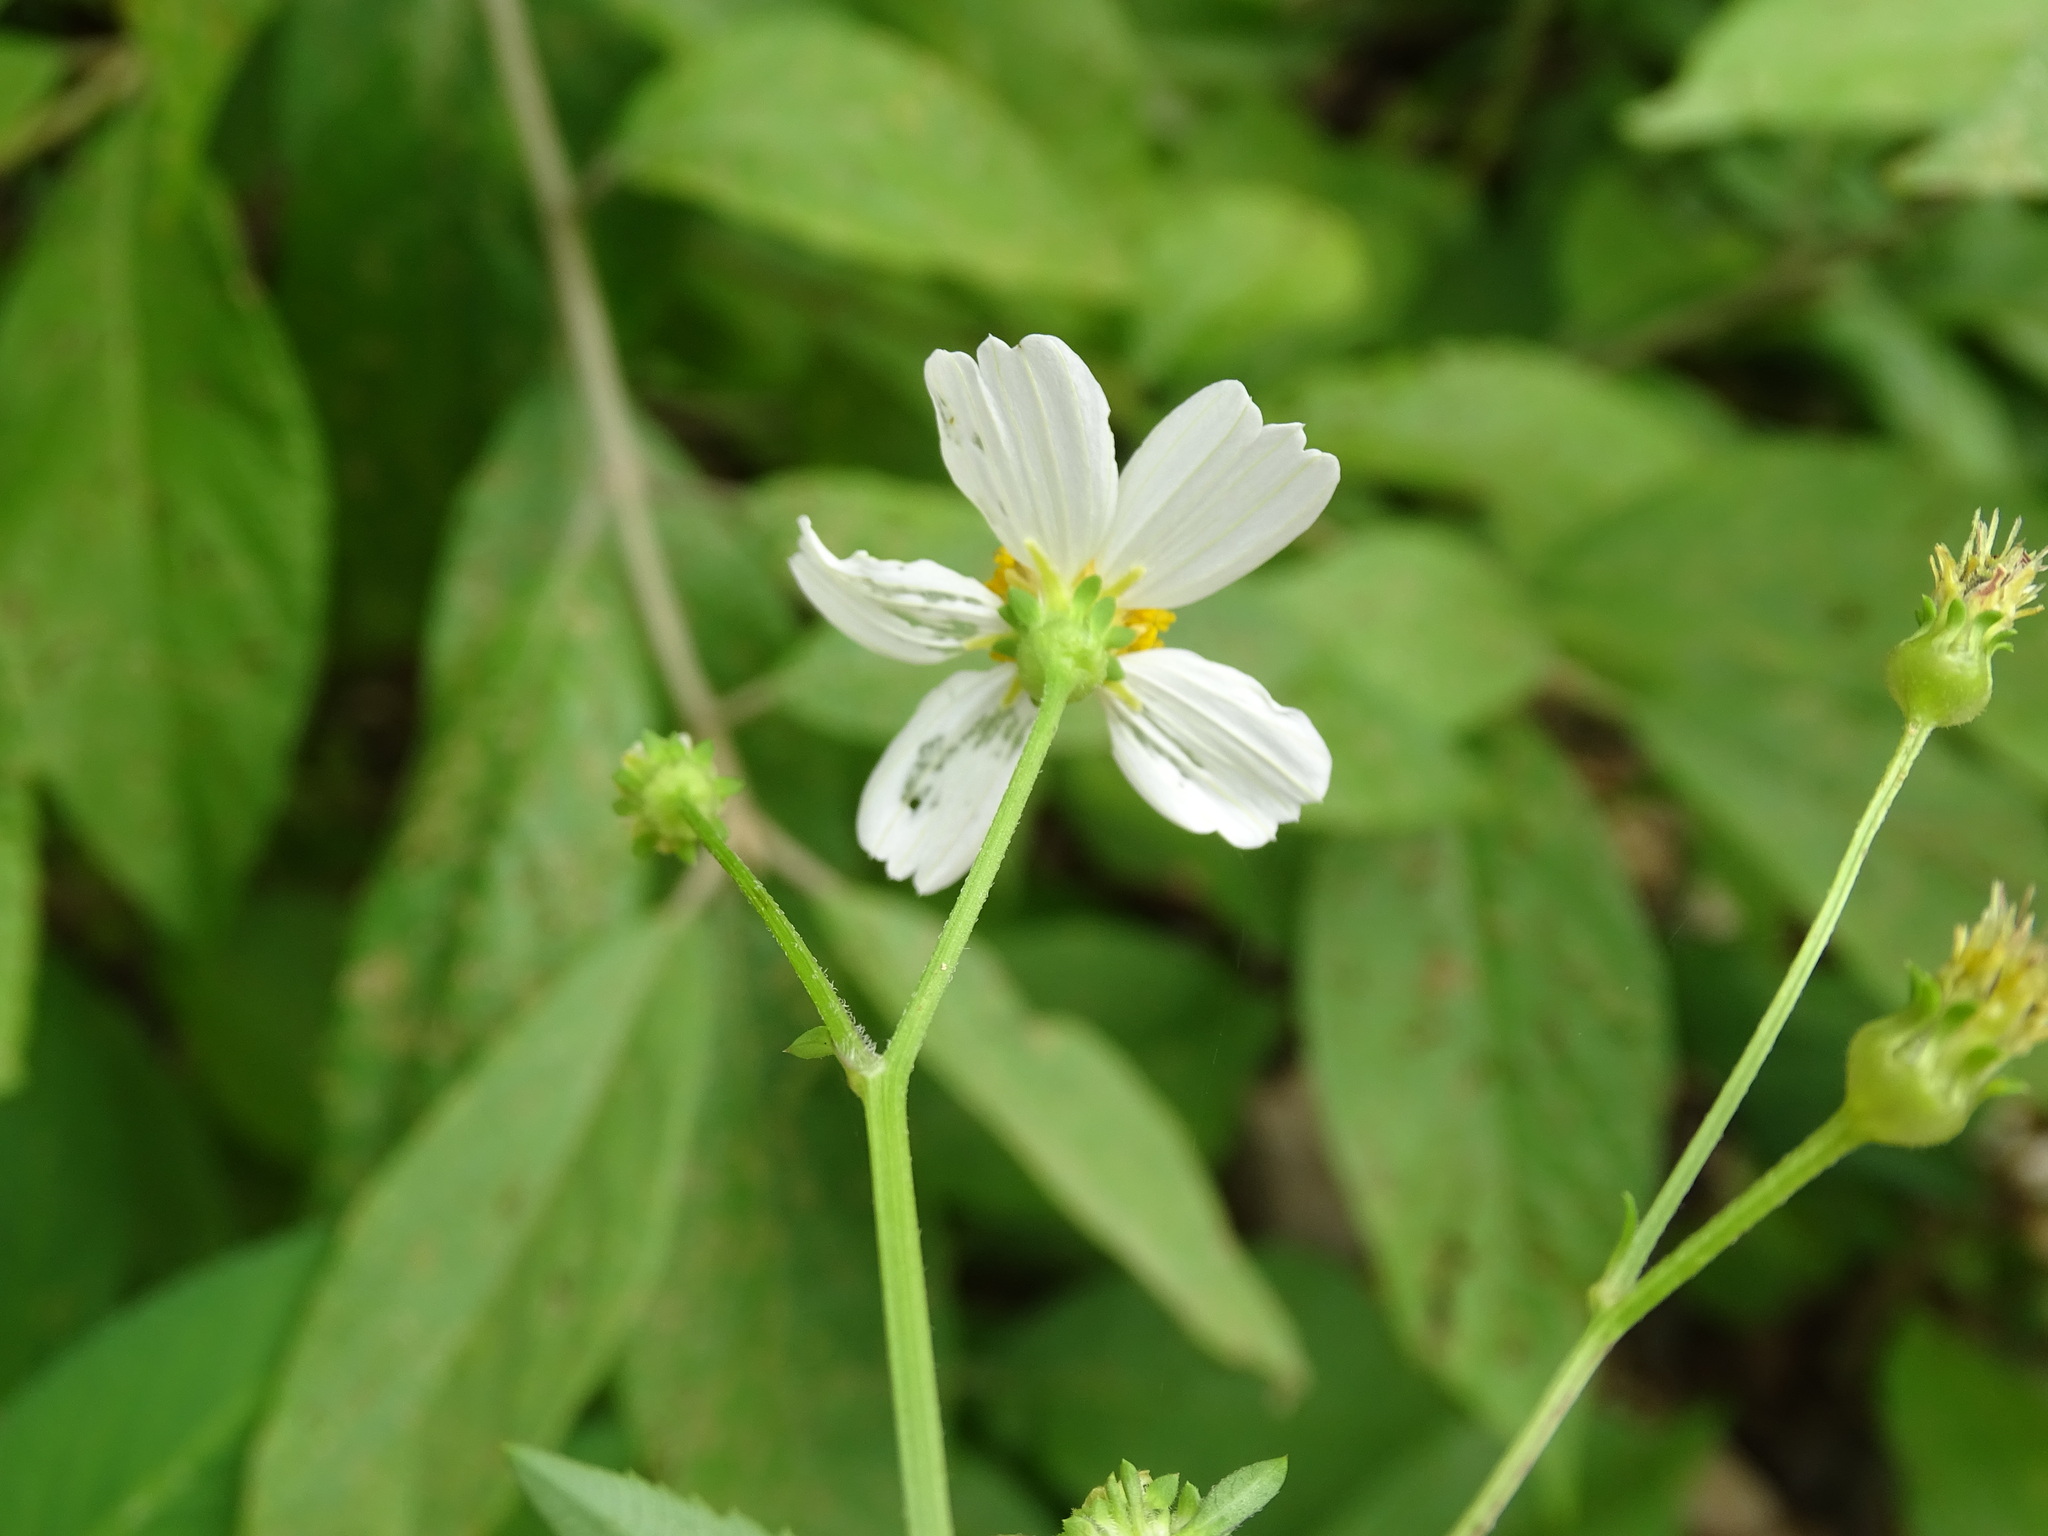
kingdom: Plantae
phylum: Tracheophyta
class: Magnoliopsida
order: Asterales
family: Asteraceae
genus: Bidens
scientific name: Bidens alba
